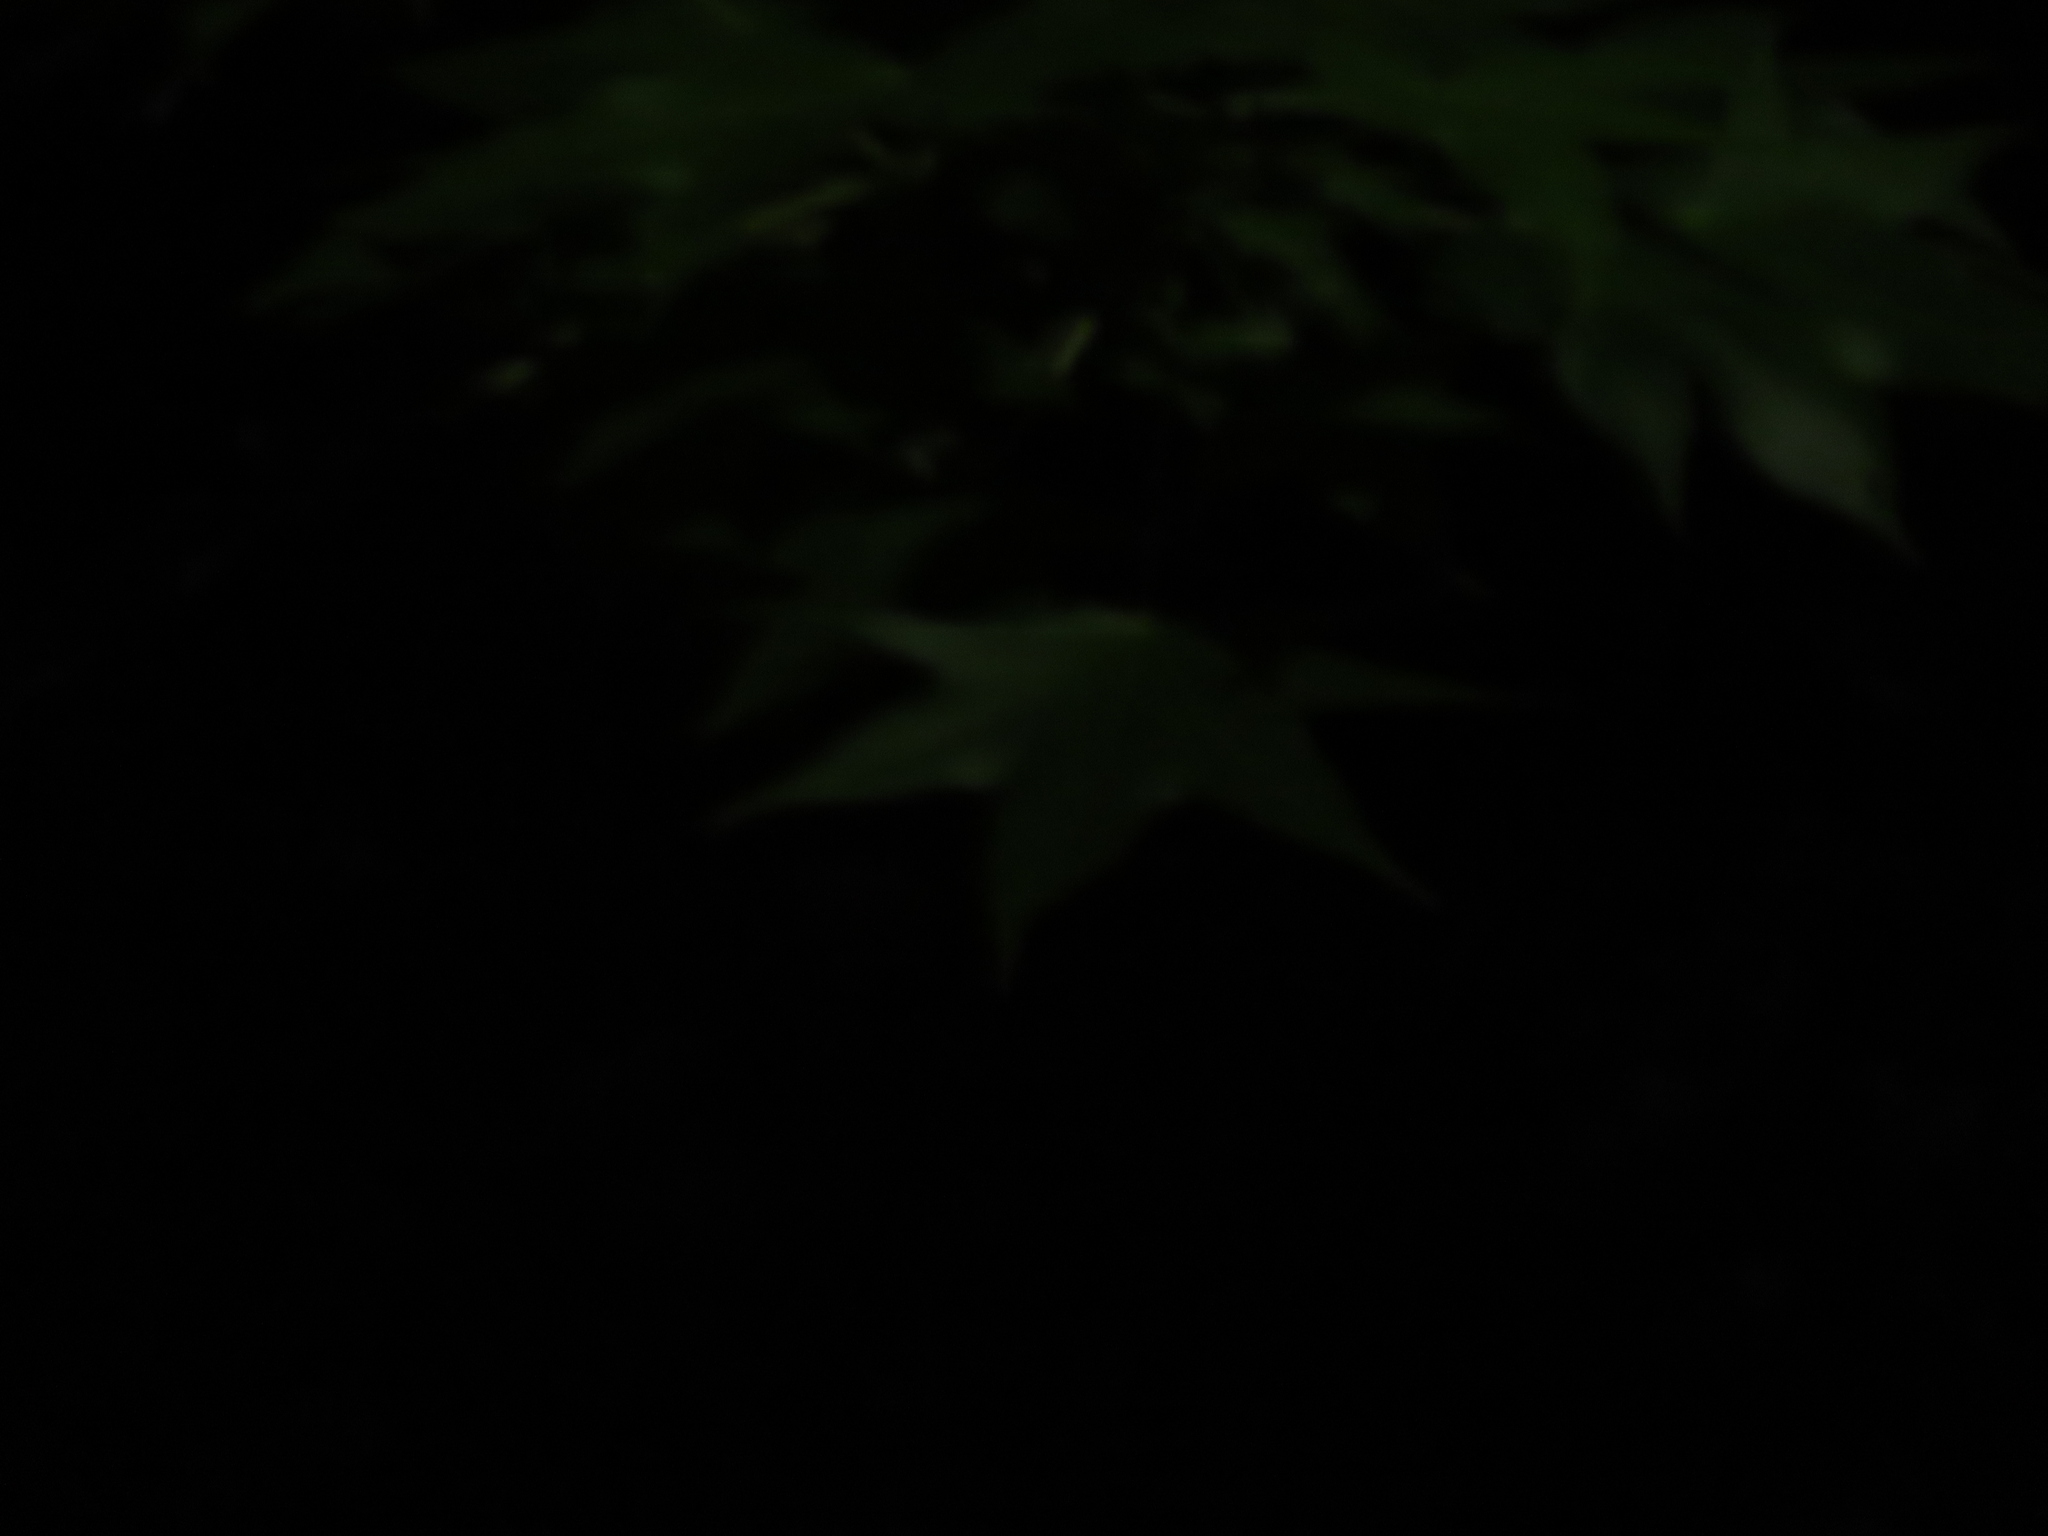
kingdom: Plantae
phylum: Tracheophyta
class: Magnoliopsida
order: Saxifragales
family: Altingiaceae
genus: Liquidambar
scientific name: Liquidambar styraciflua
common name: Sweet gum
